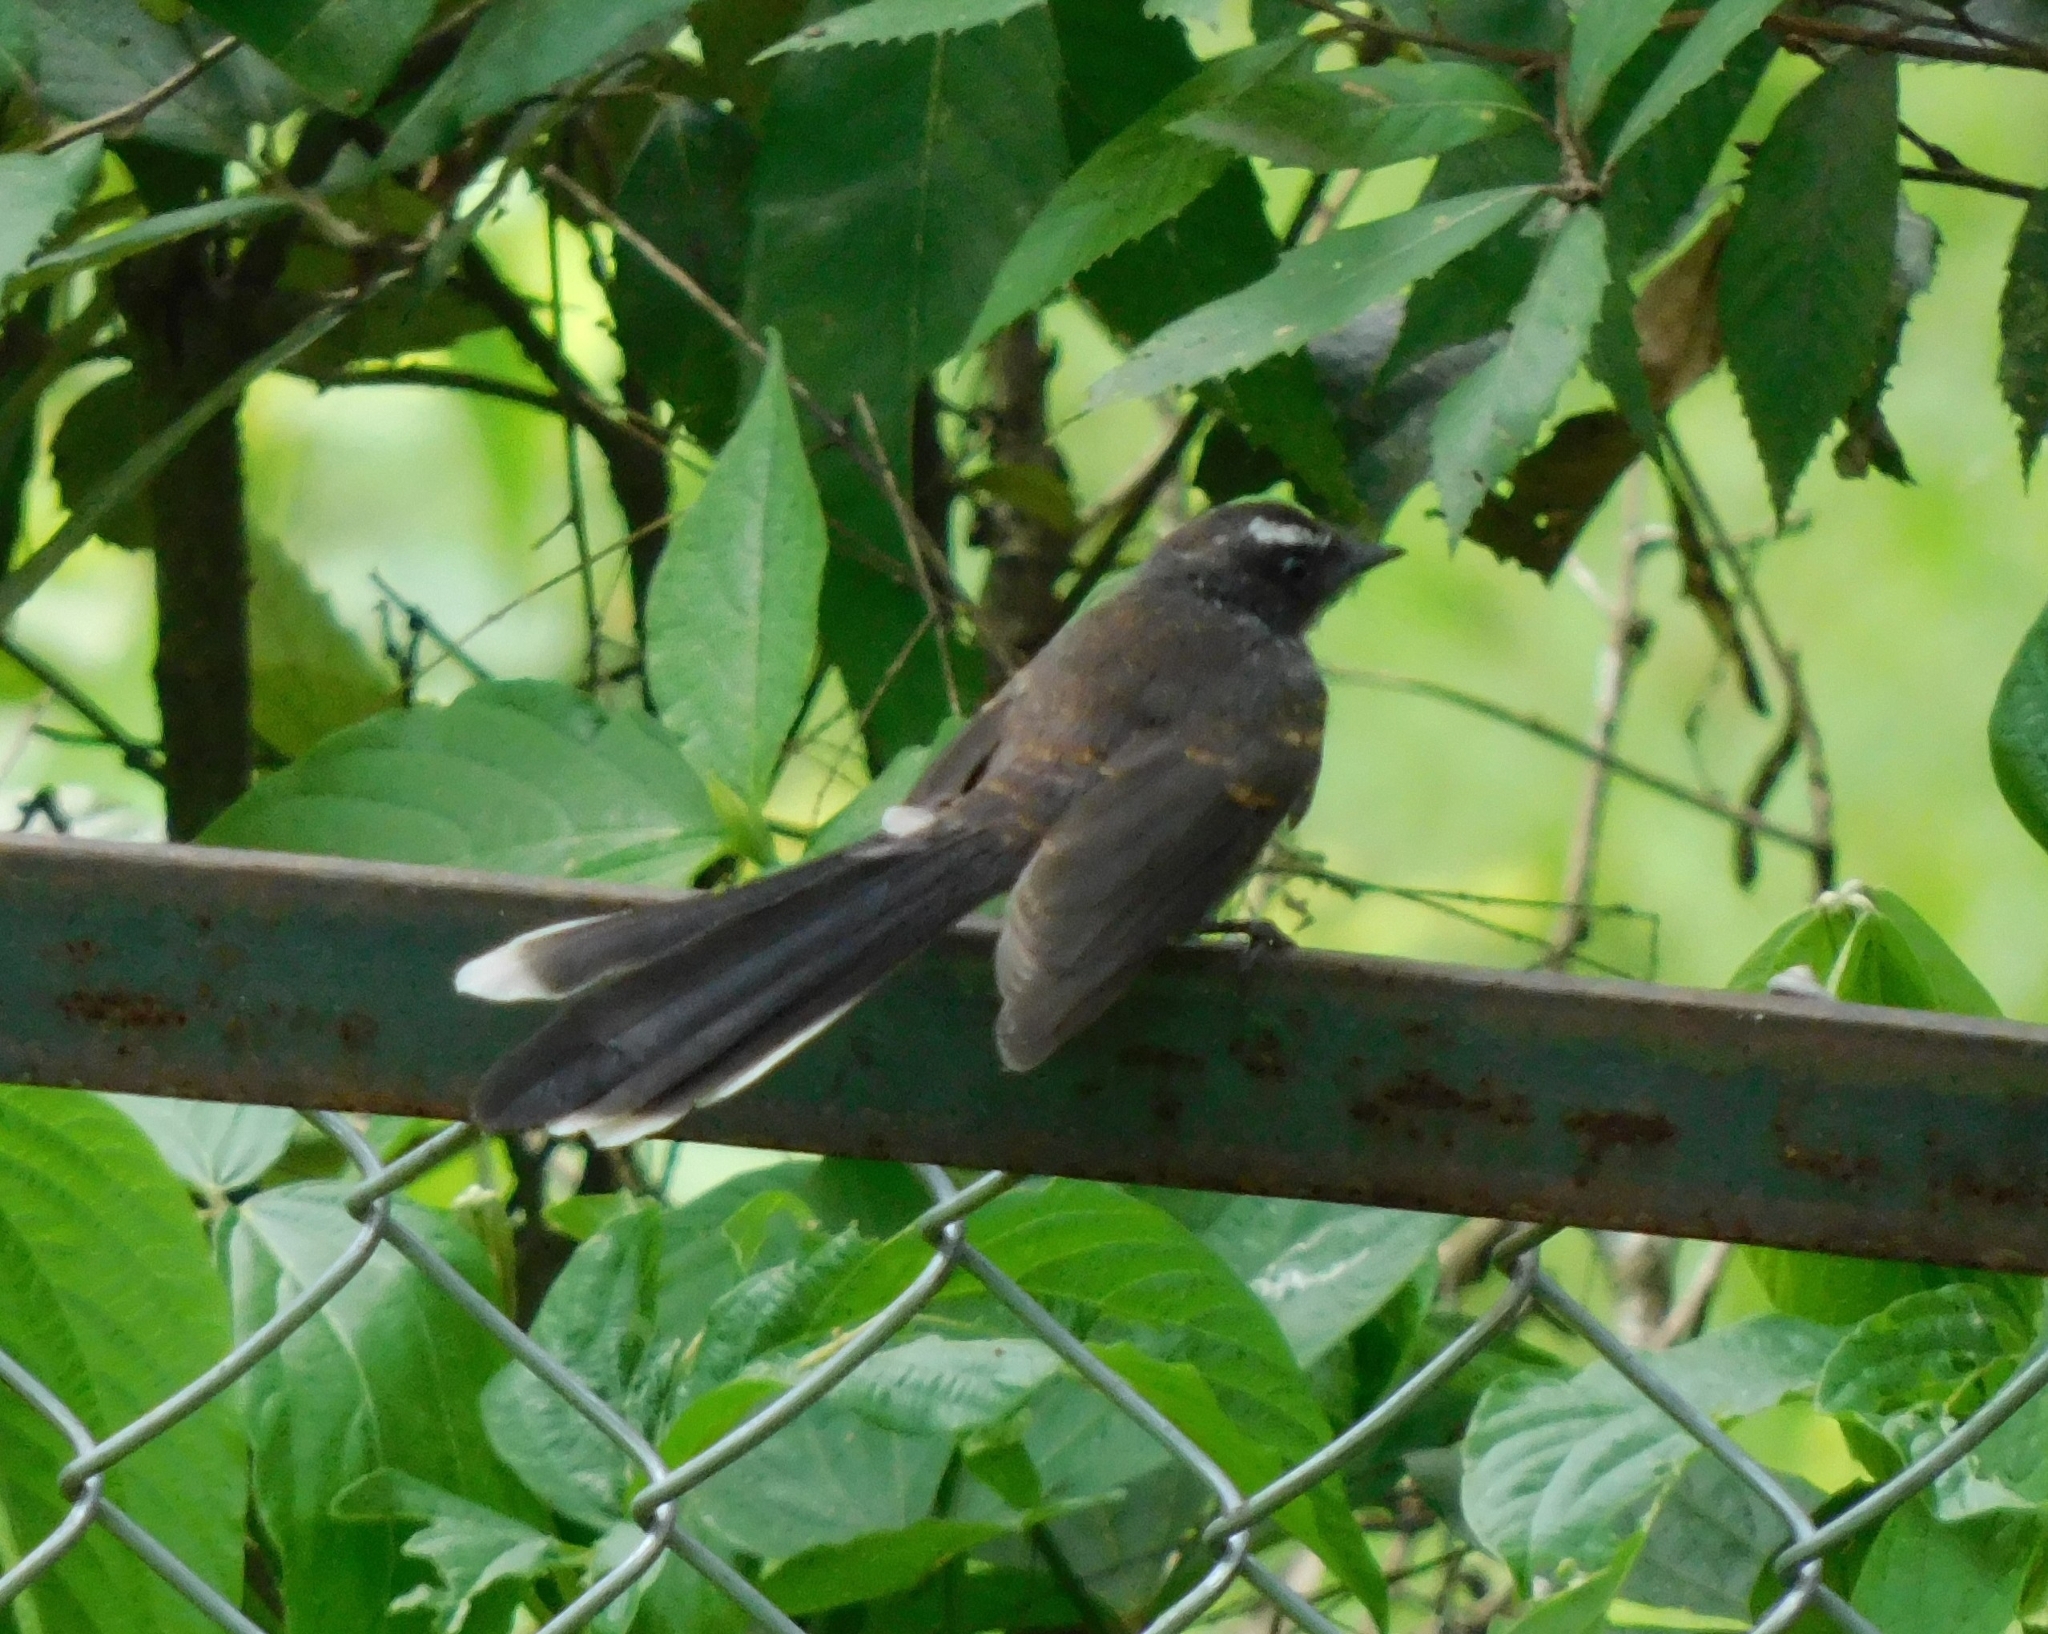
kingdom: Animalia
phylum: Chordata
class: Aves
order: Passeriformes
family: Rhipiduridae
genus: Rhipidura
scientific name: Rhipidura albicollis
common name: White-throated fantail
